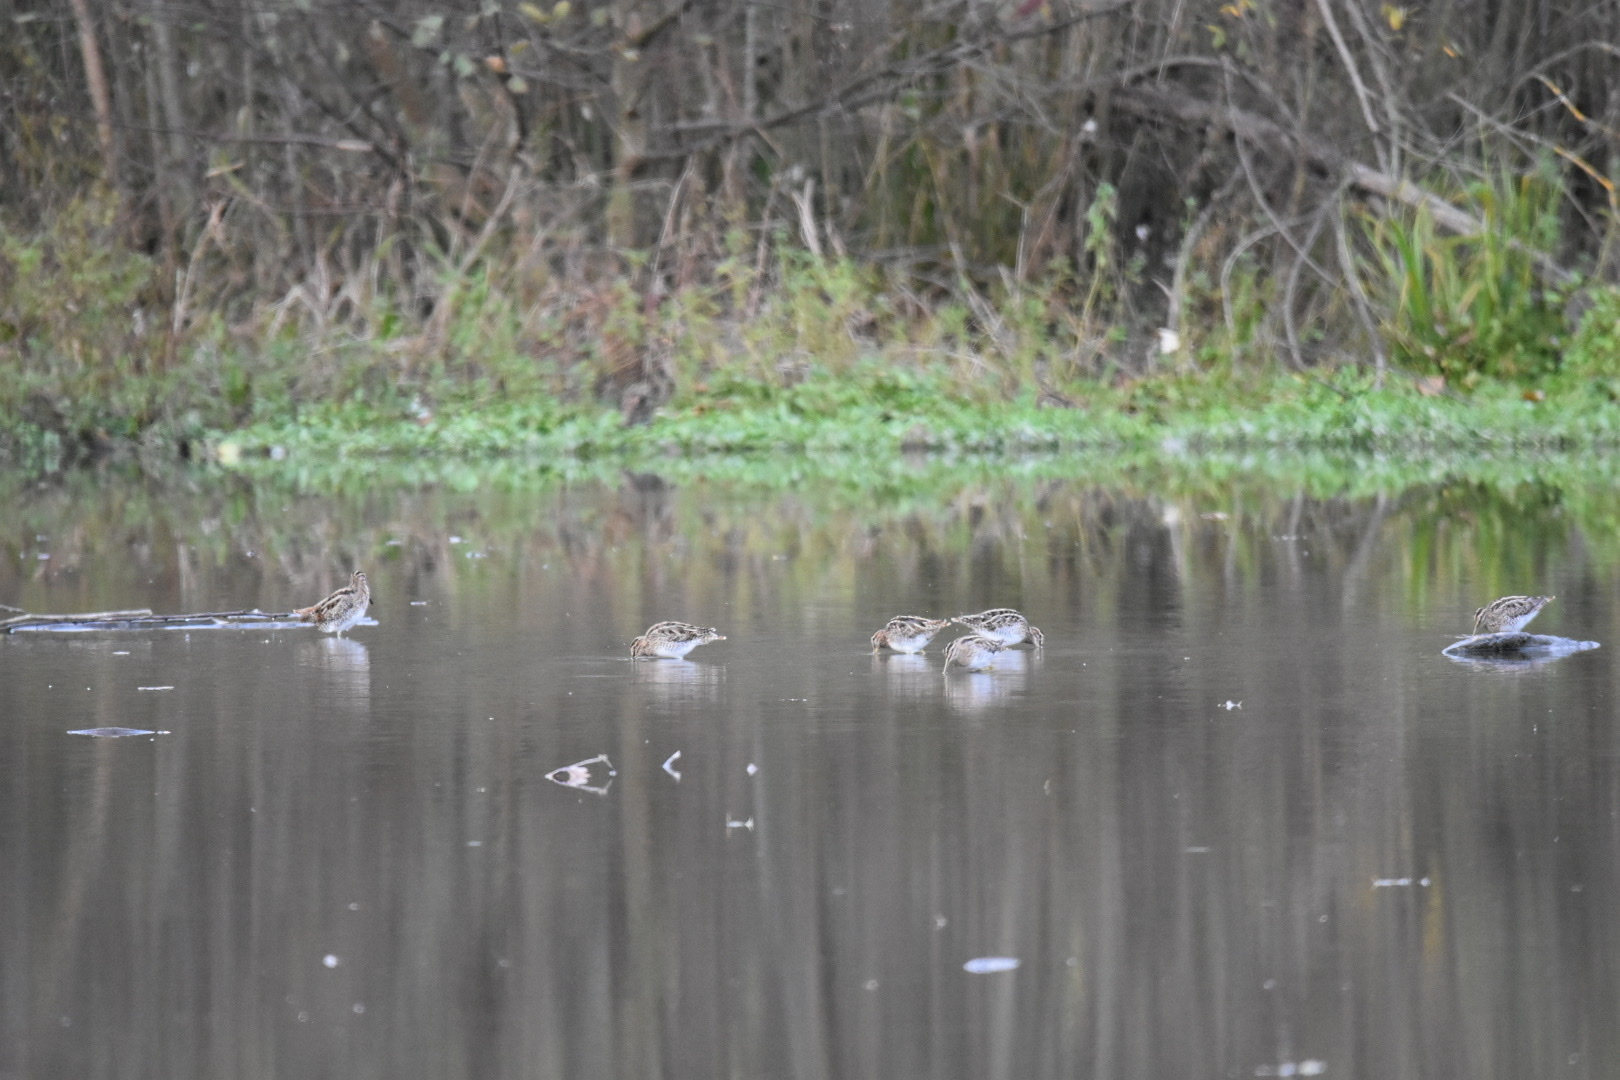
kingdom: Animalia
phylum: Chordata
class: Aves
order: Charadriiformes
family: Scolopacidae
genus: Gallinago
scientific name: Gallinago gallinago
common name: Common snipe
